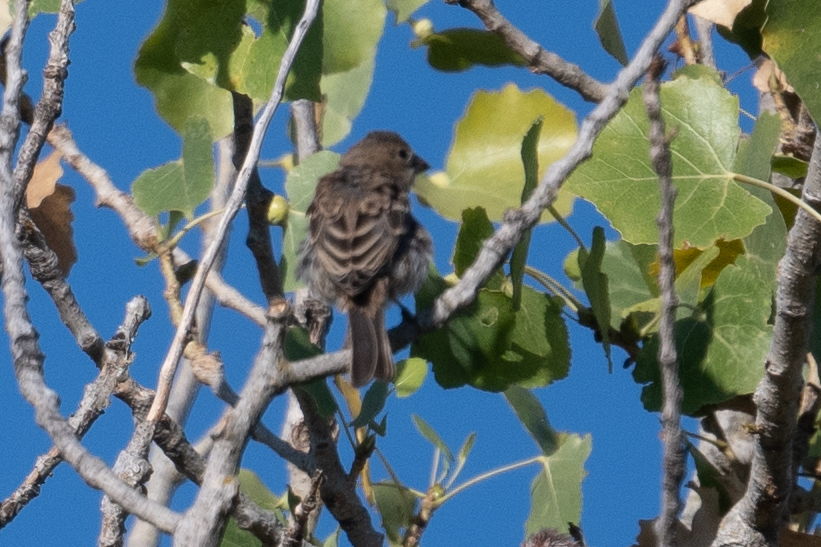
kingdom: Animalia
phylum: Chordata
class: Aves
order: Passeriformes
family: Fringillidae
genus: Haemorhous
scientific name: Haemorhous mexicanus
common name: House finch
